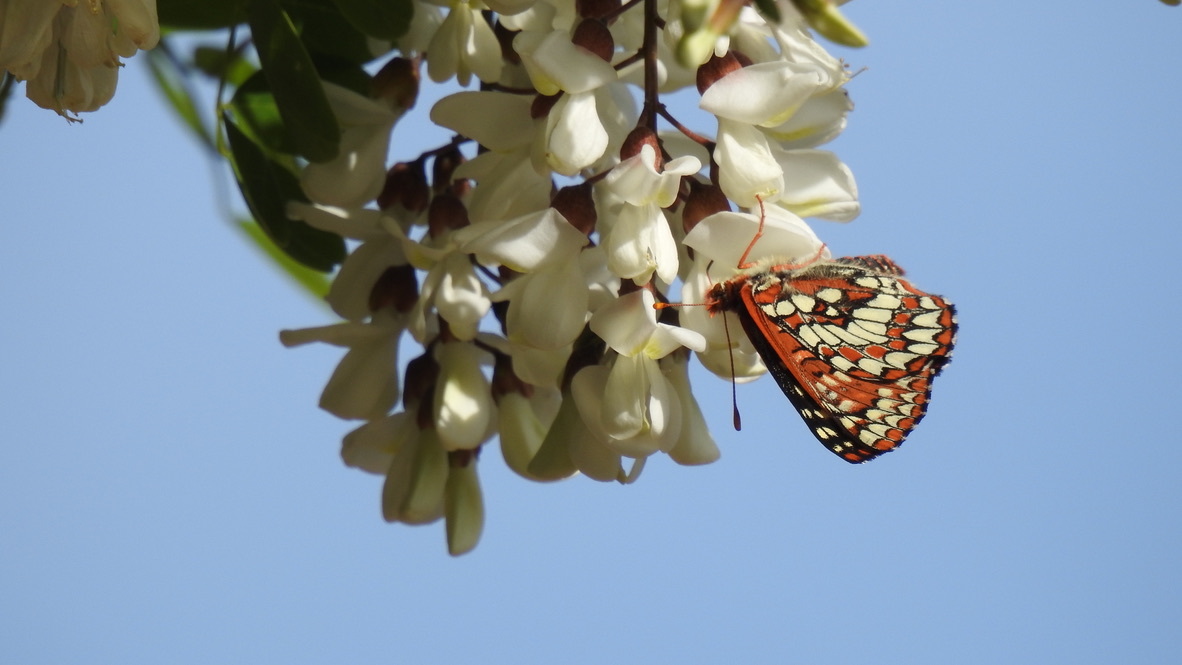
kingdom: Animalia
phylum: Arthropoda
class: Insecta
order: Lepidoptera
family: Nymphalidae
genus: Occidryas
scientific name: Occidryas chalcedona
